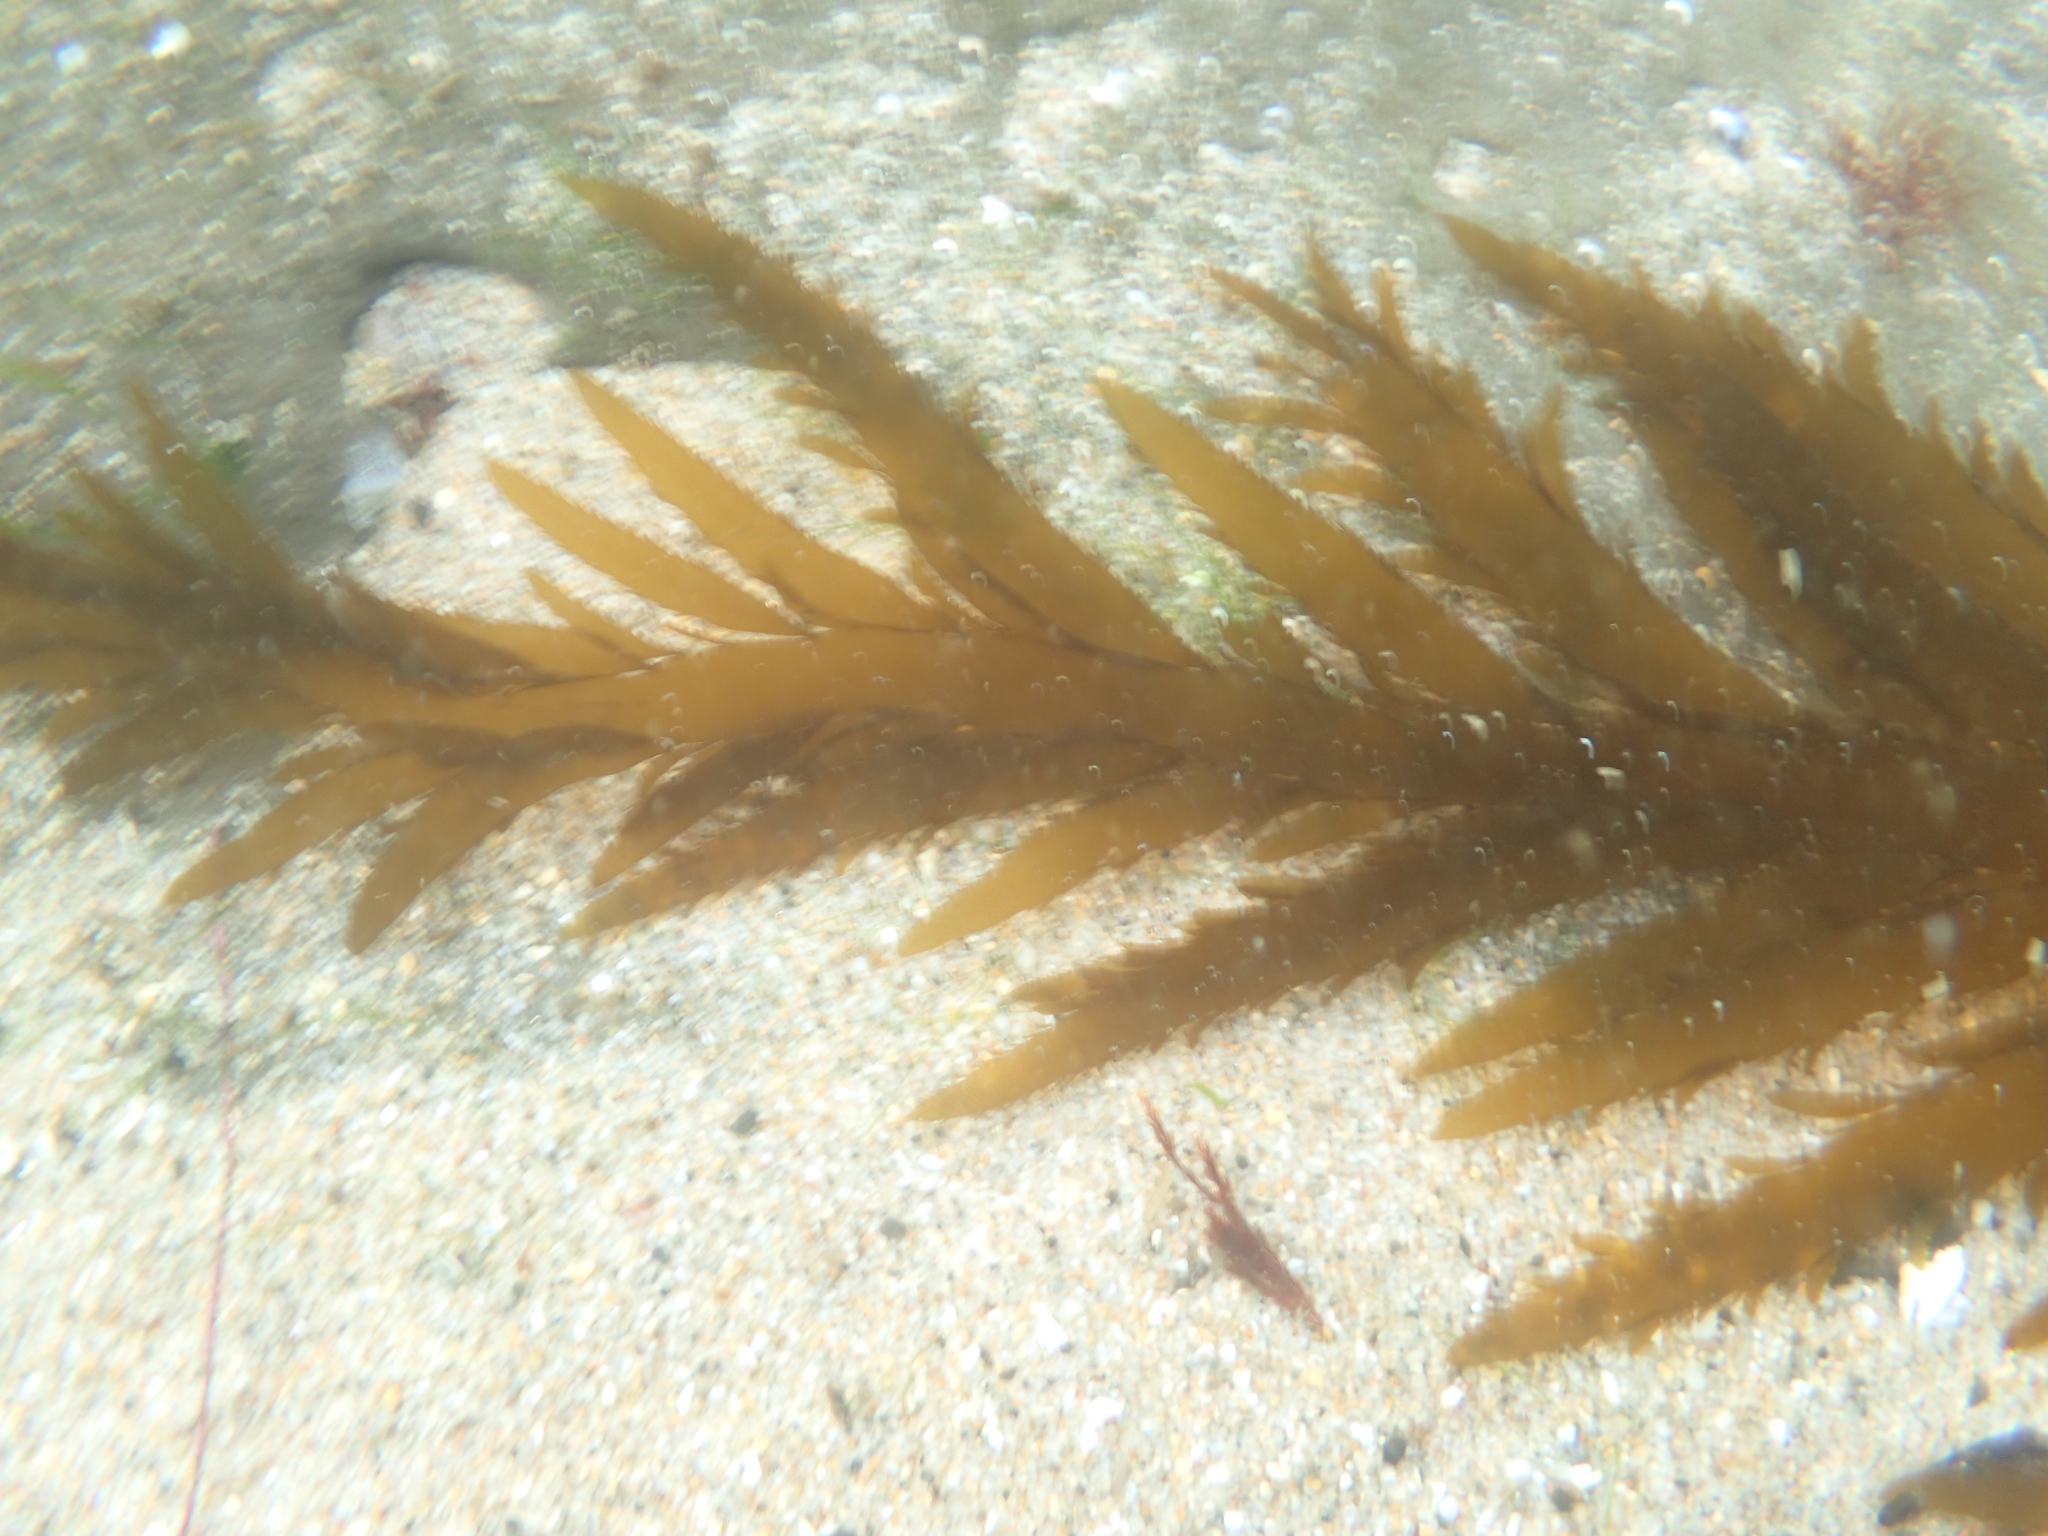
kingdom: Chromista
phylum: Ochrophyta
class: Phaeophyceae
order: Desmarestiales
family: Desmarestiaceae
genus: Desmarestia
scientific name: Desmarestia ligulata
